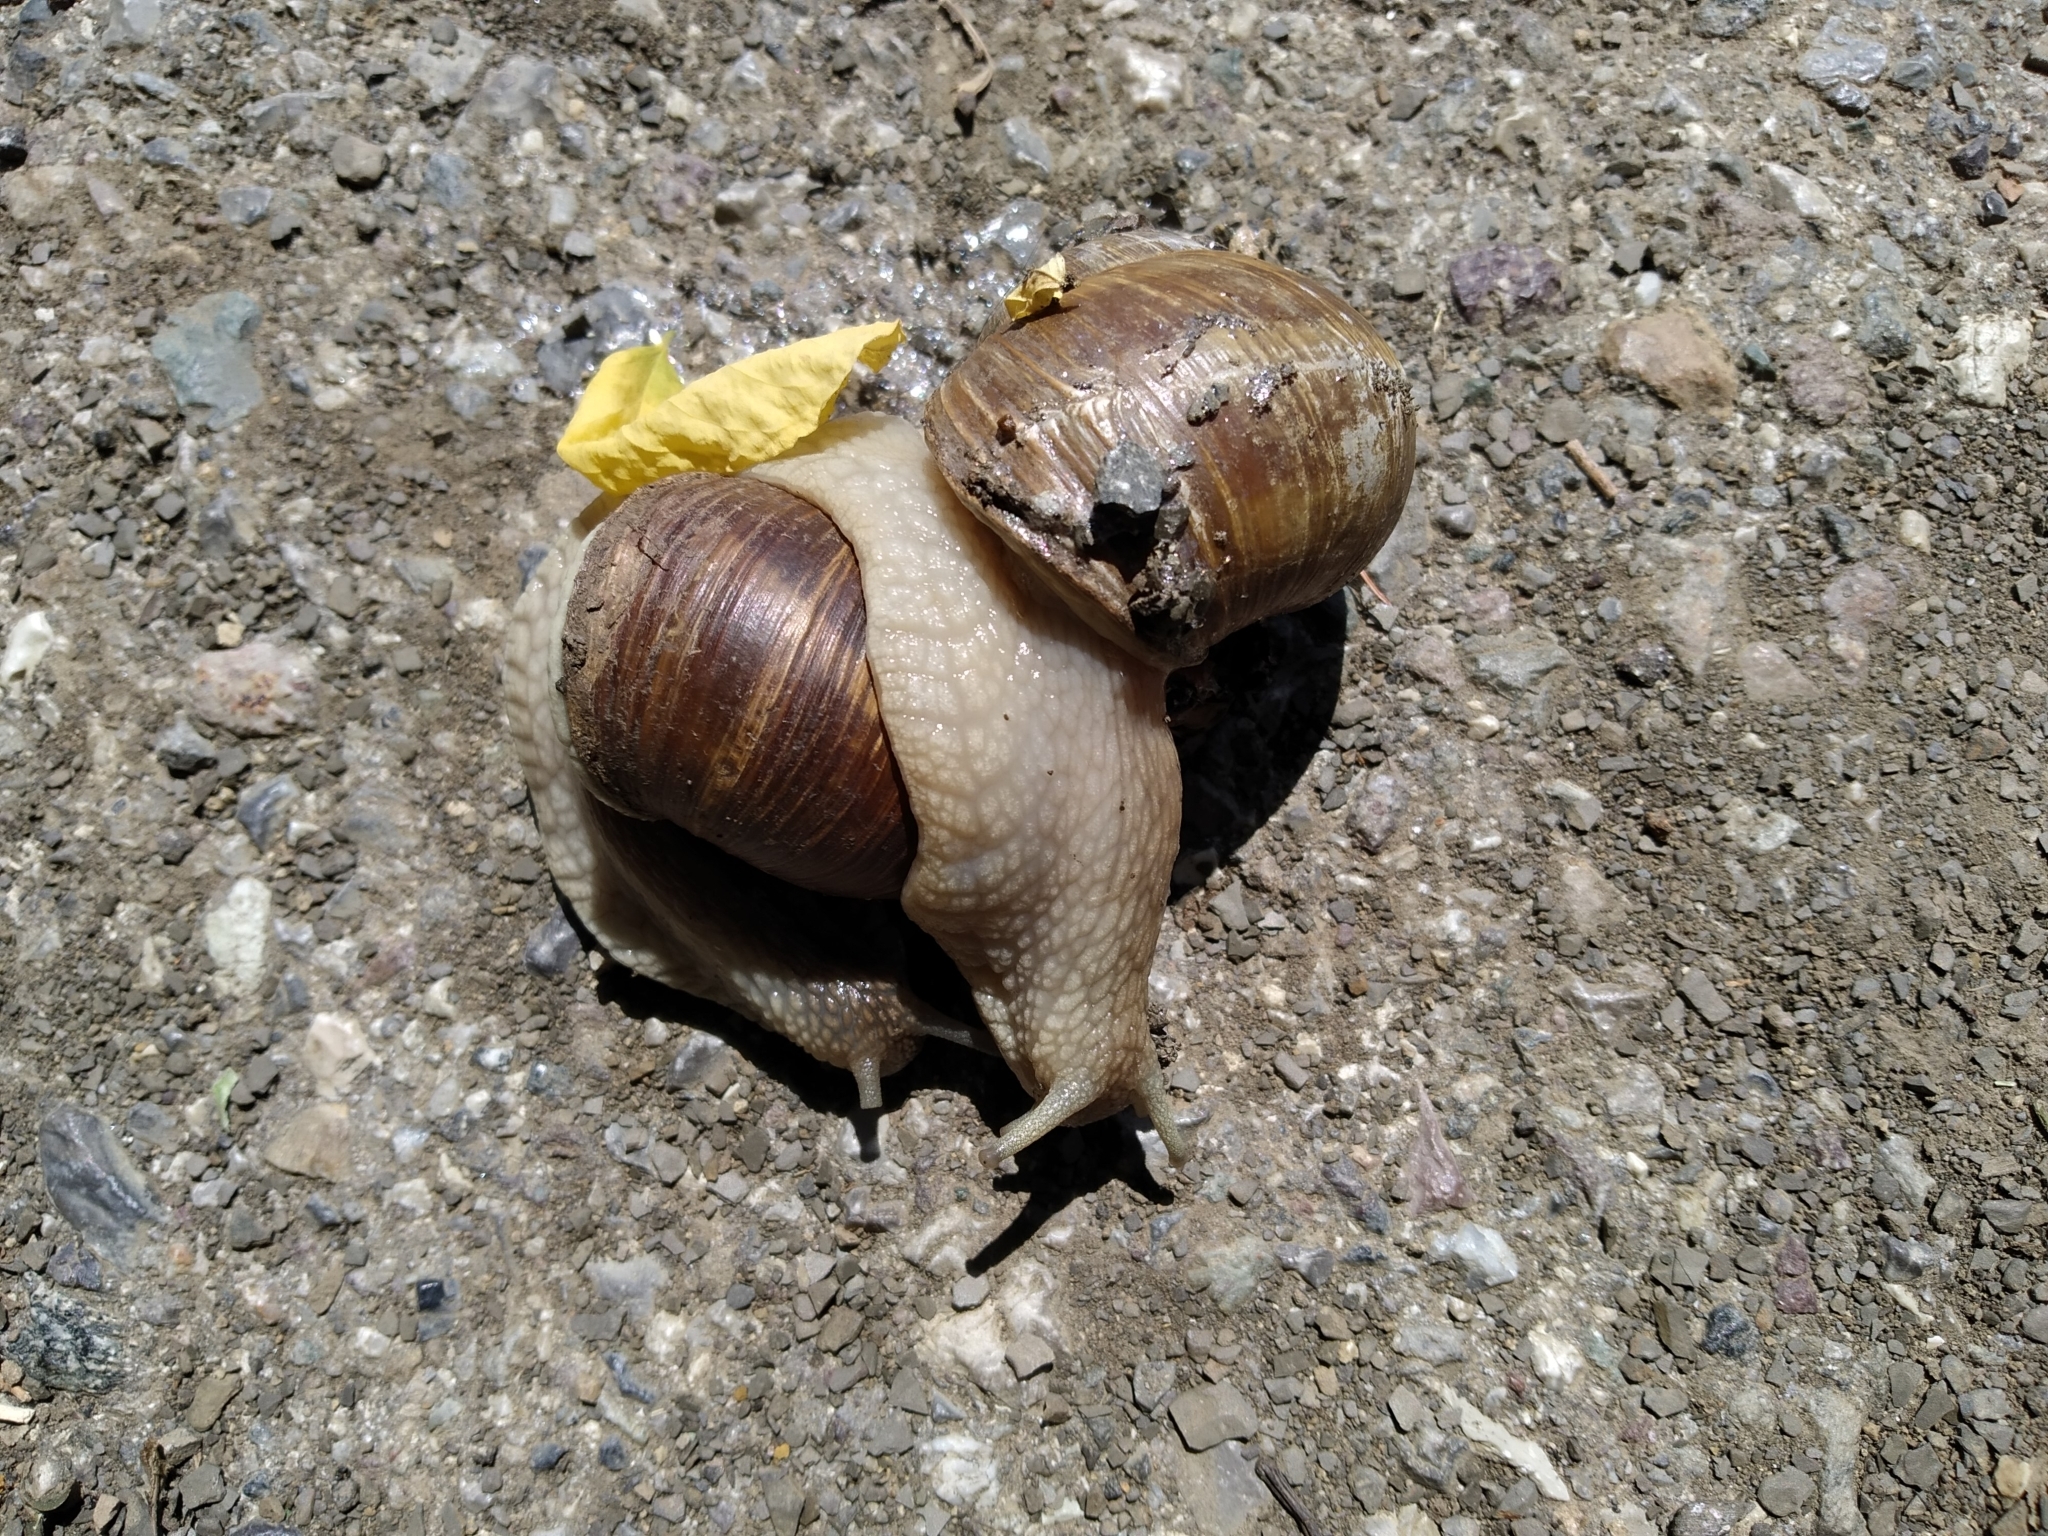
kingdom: Animalia
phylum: Mollusca
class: Gastropoda
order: Stylommatophora
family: Helicidae
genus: Helix
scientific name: Helix pomatia
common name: Roman snail
